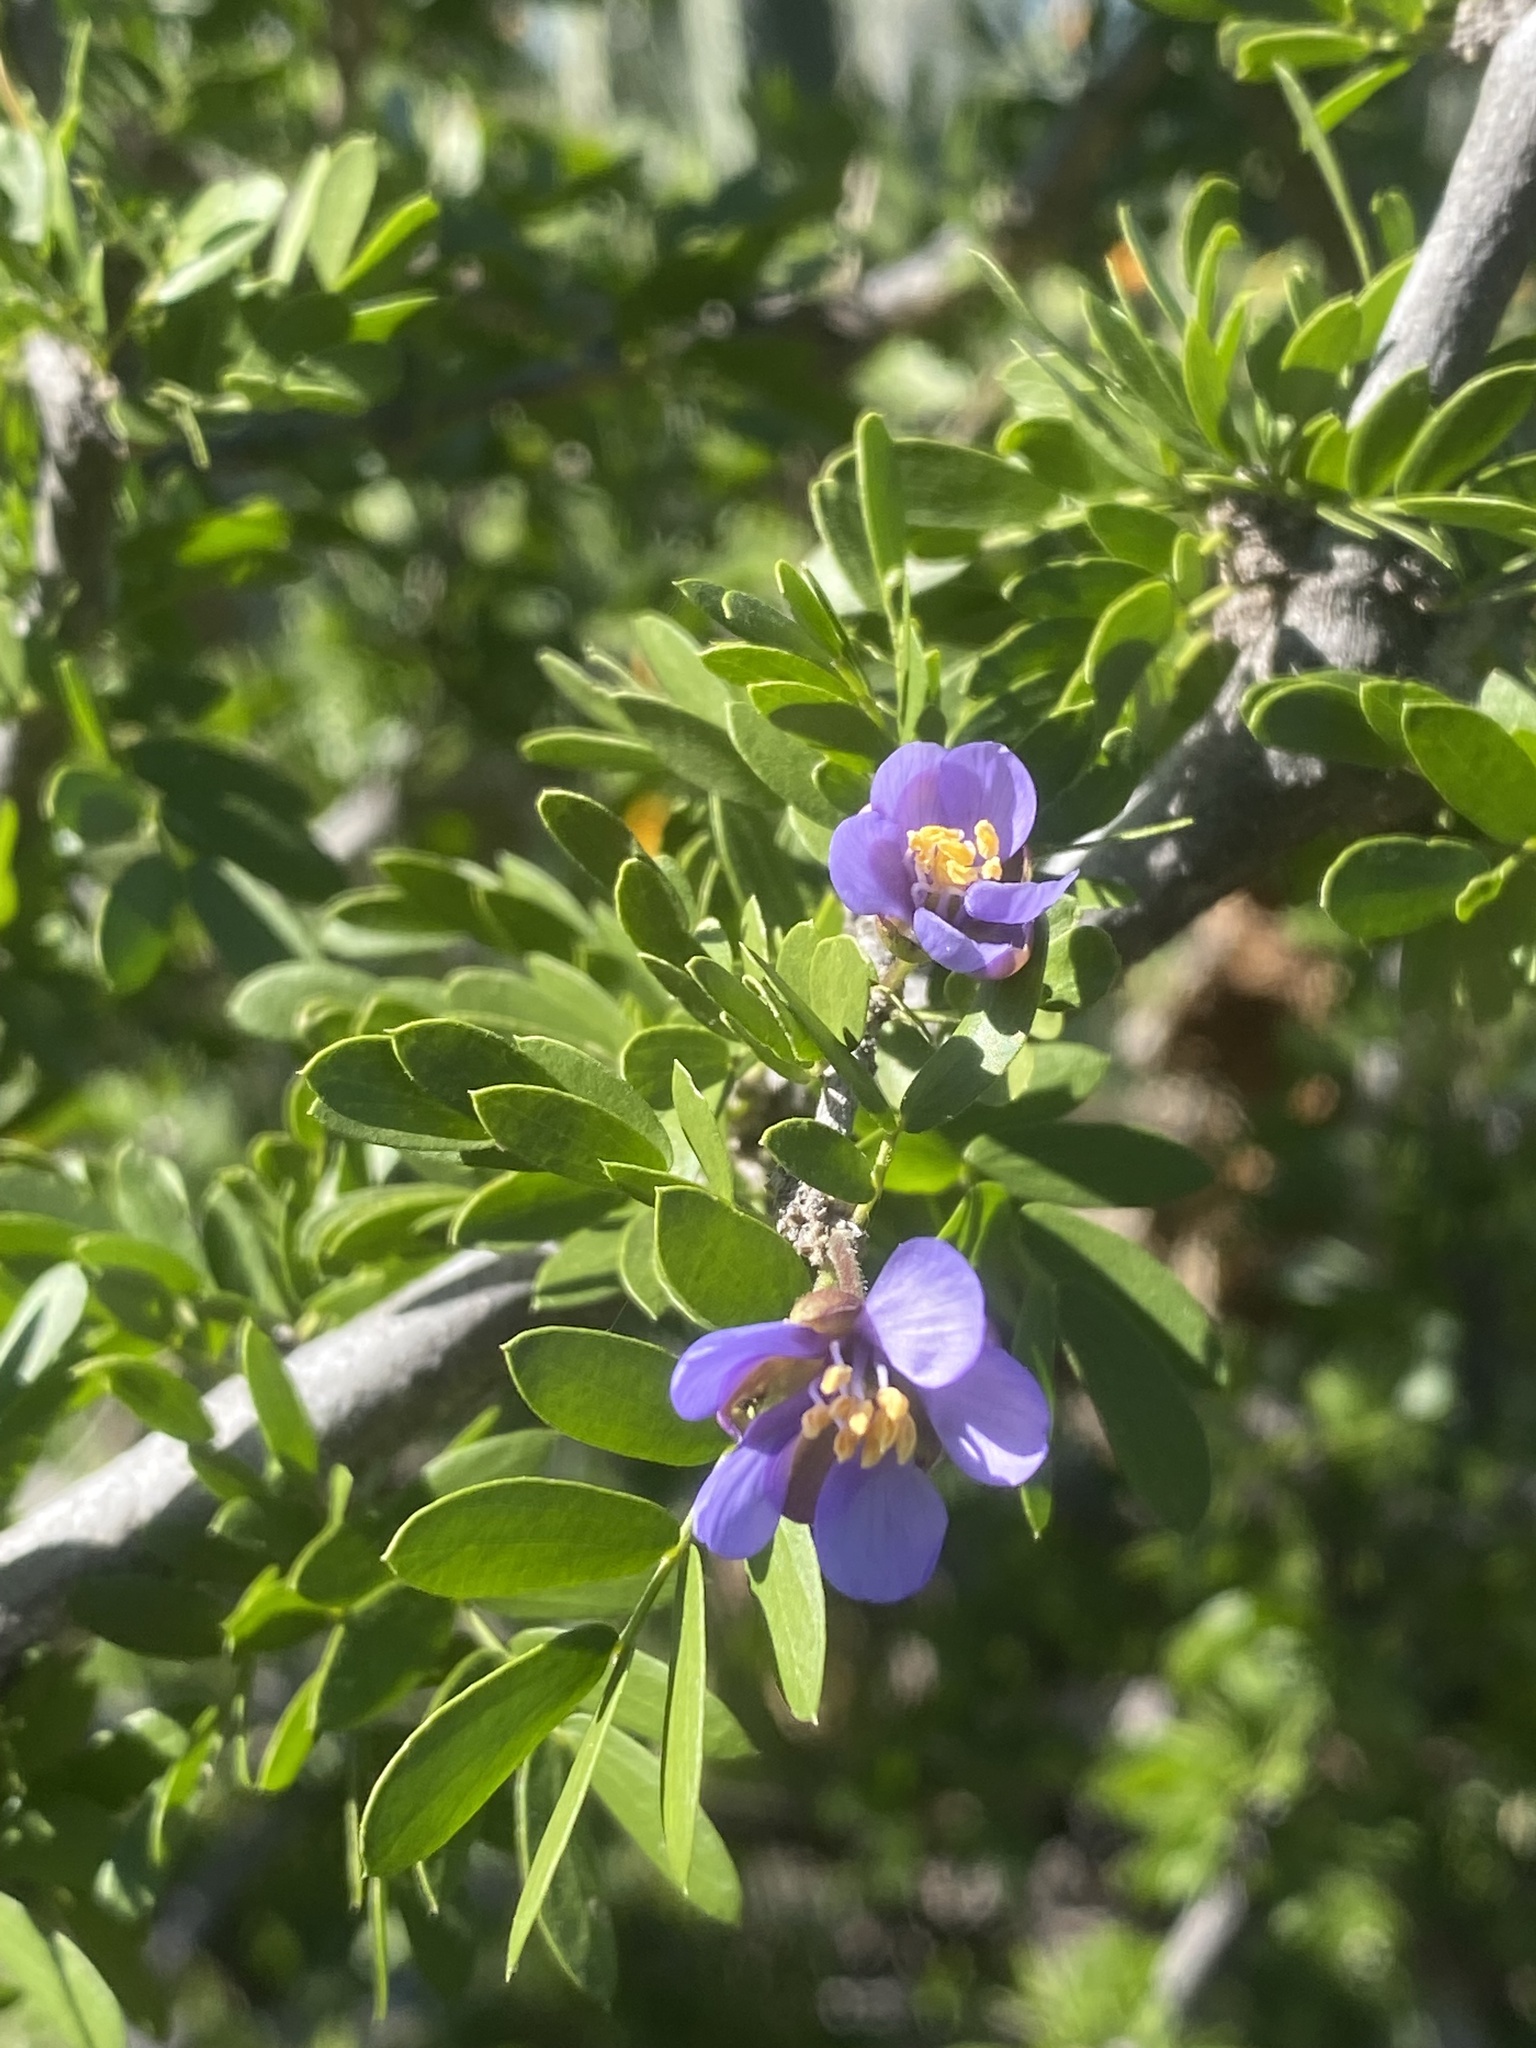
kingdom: Plantae
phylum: Tracheophyta
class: Magnoliopsida
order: Zygophyllales
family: Zygophyllaceae
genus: Guaiacum
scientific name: Guaiacum coulteri
